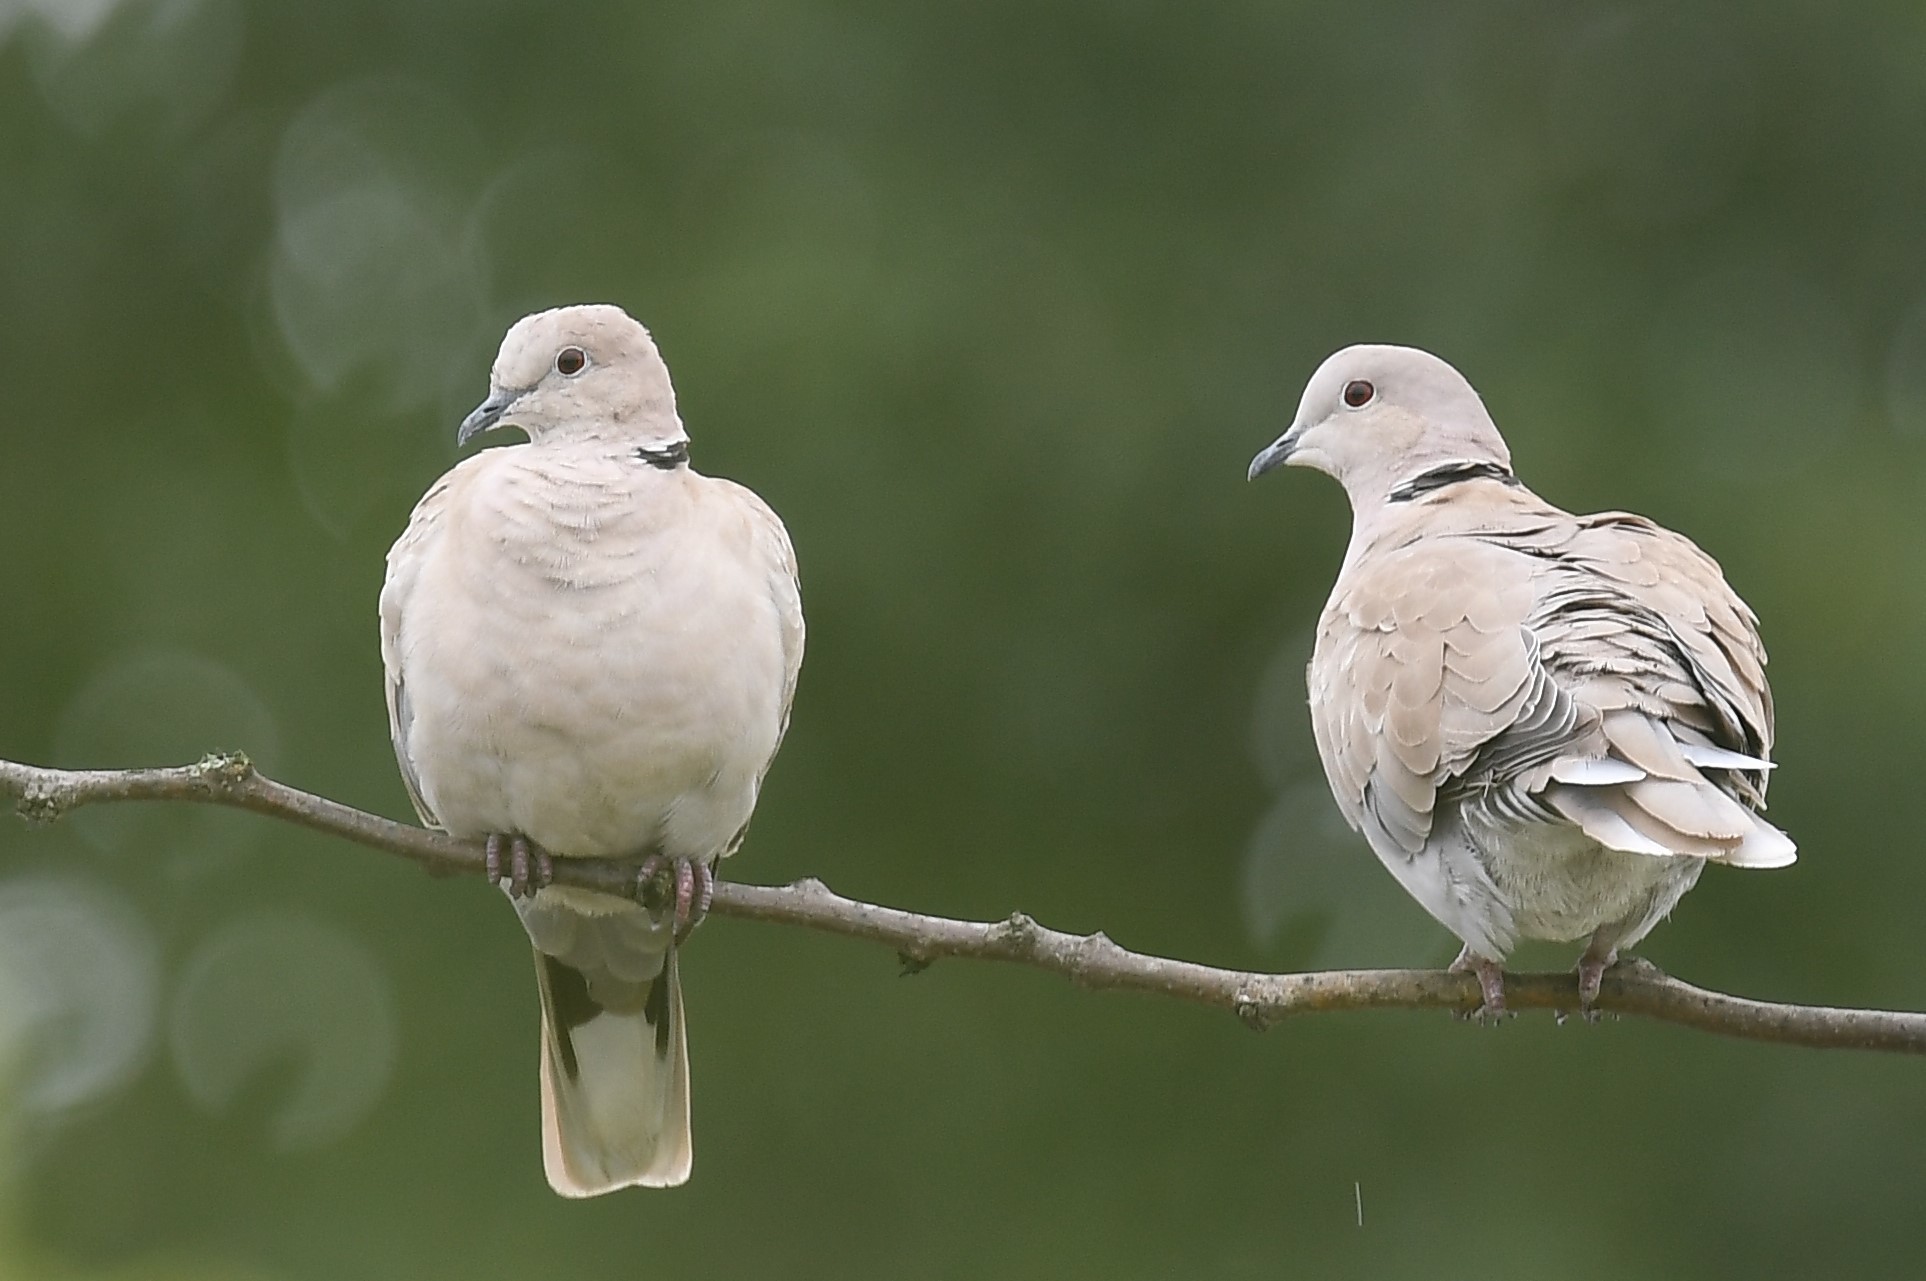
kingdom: Animalia
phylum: Chordata
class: Aves
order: Columbiformes
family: Columbidae
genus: Streptopelia
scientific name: Streptopelia decaocto
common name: Eurasian collared dove
